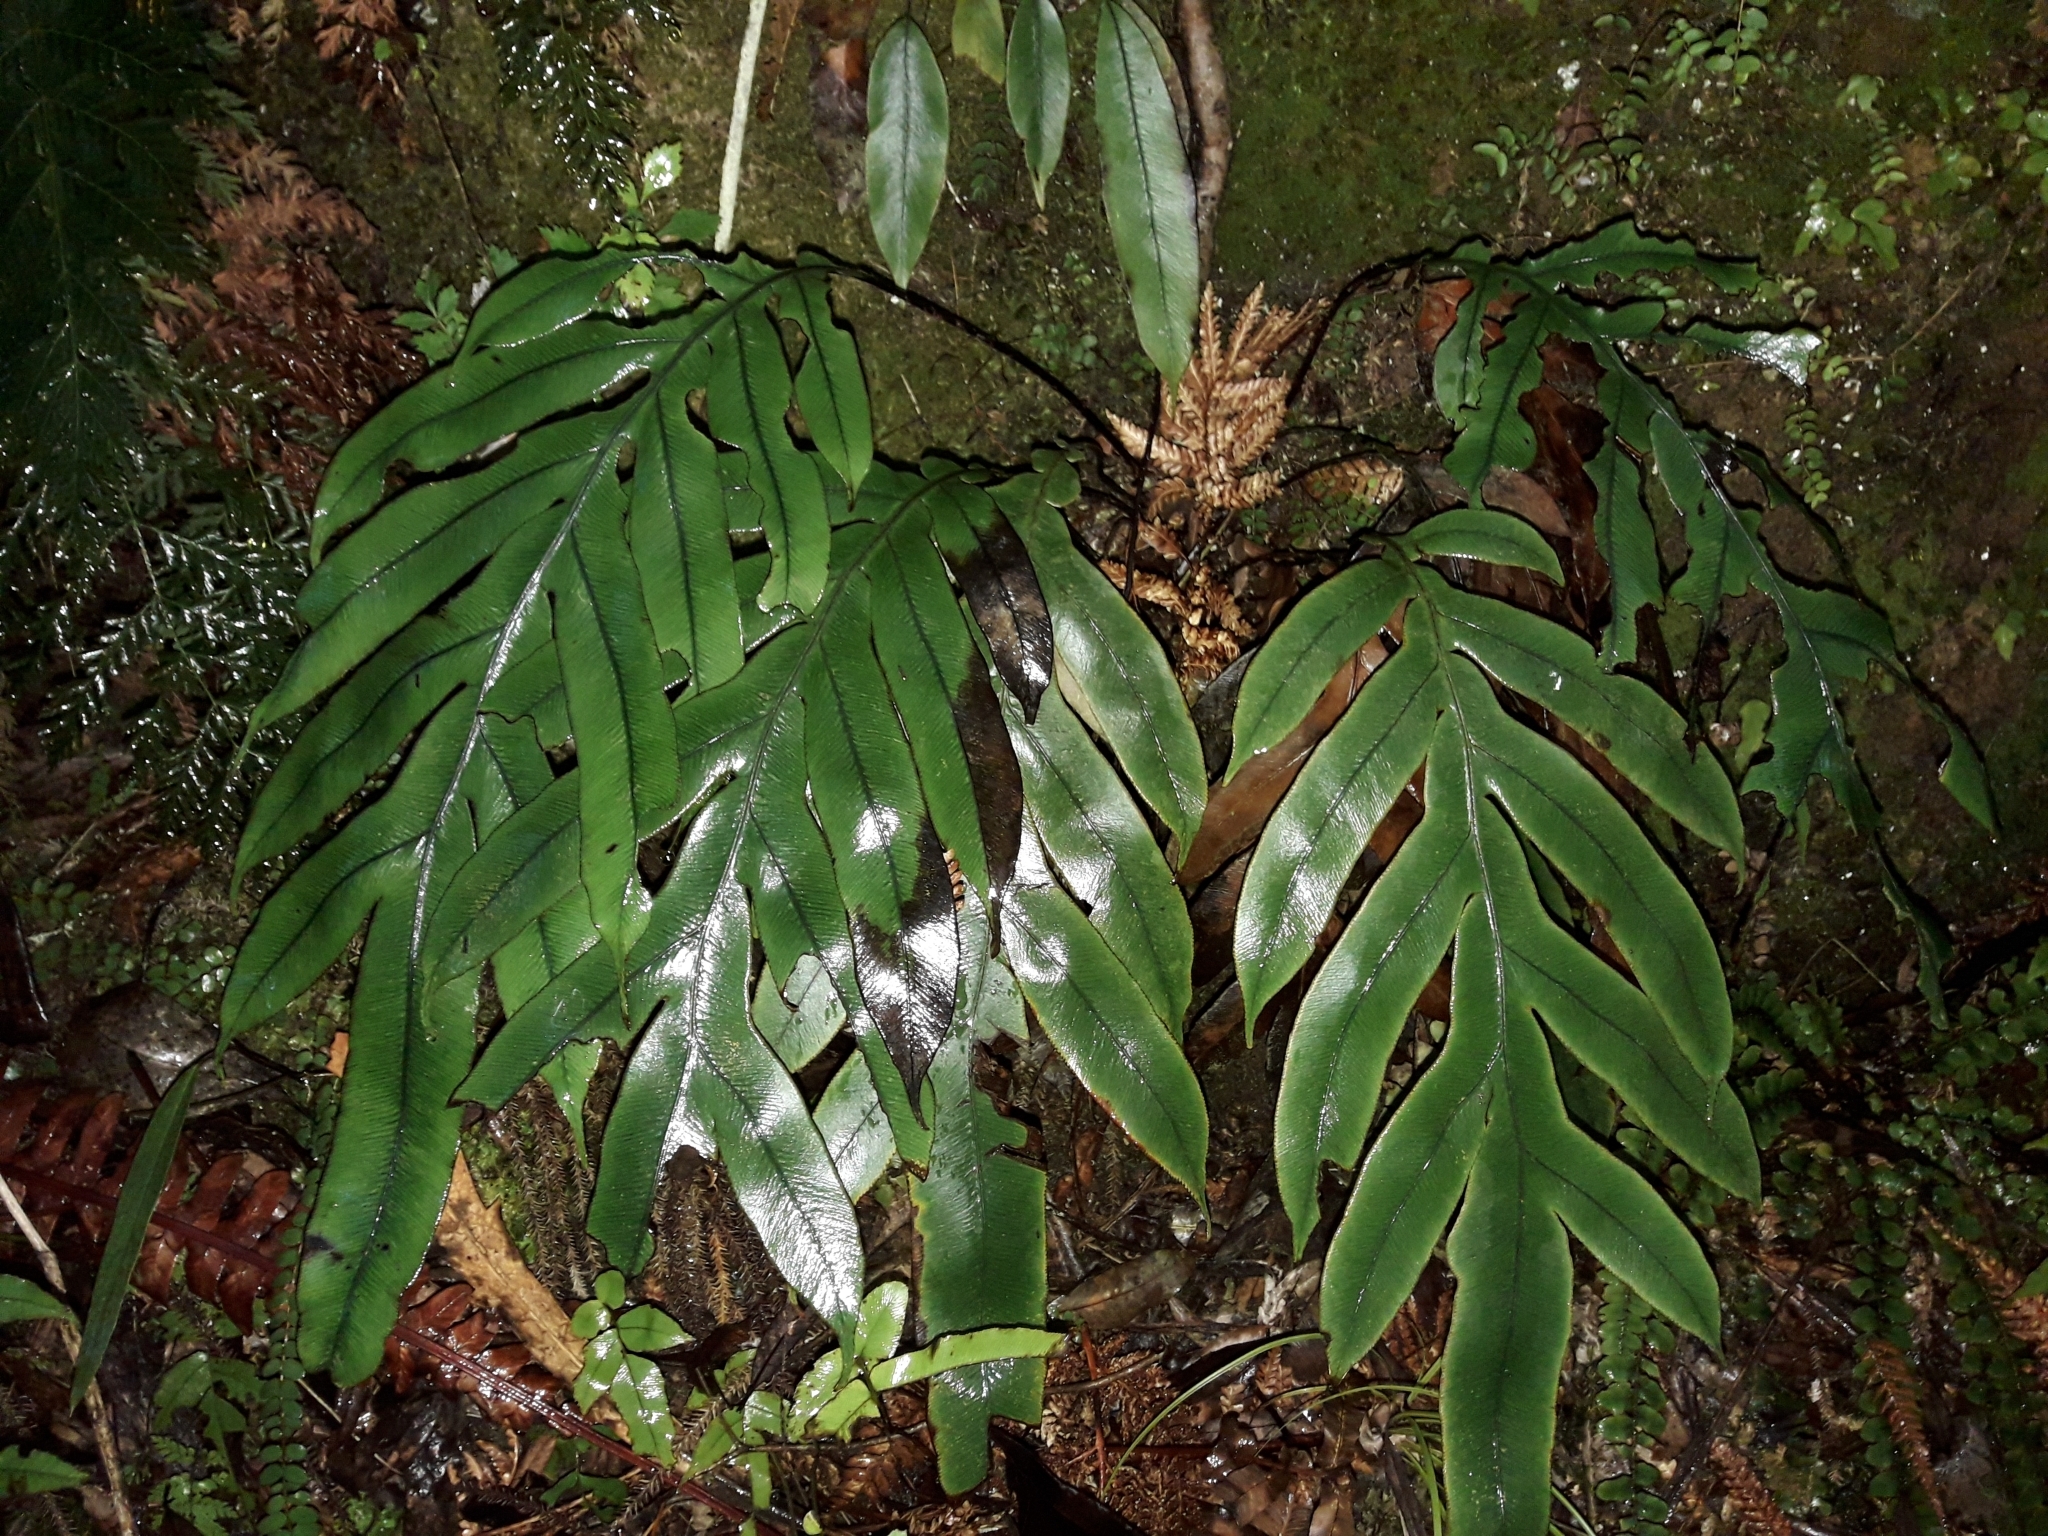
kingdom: Plantae
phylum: Tracheophyta
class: Polypodiopsida
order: Polypodiales
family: Blechnaceae
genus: Austroblechnum
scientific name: Austroblechnum colensoi
